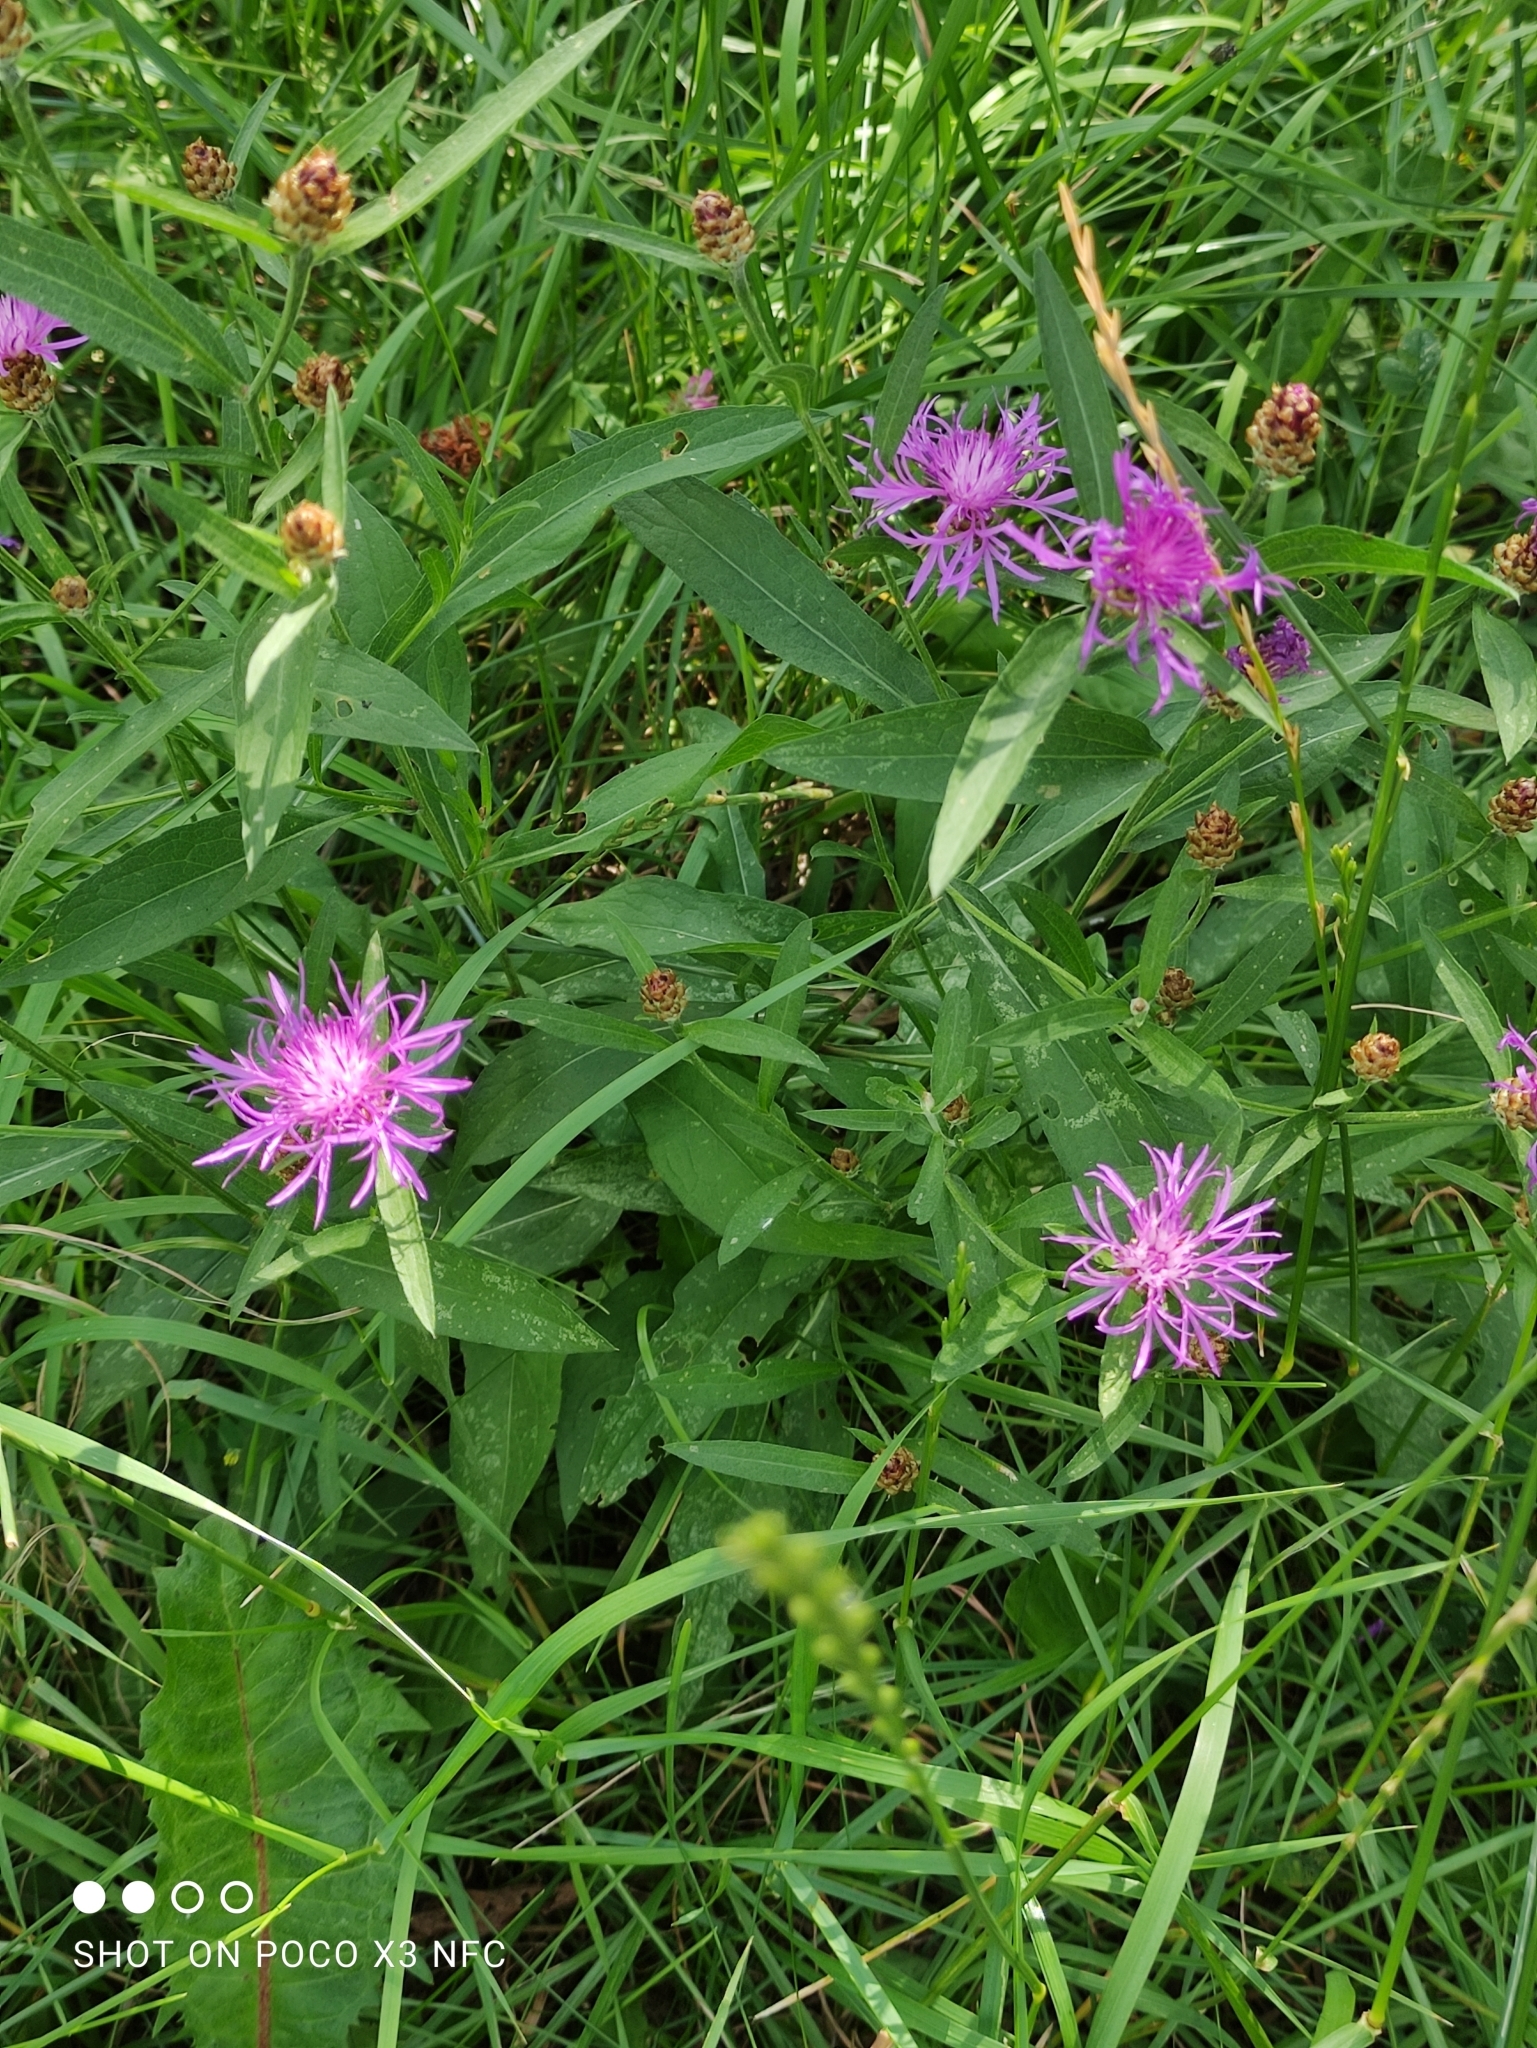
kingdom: Plantae
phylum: Tracheophyta
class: Magnoliopsida
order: Asterales
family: Asteraceae
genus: Centaurea
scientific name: Centaurea jacea
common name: Brown knapweed
